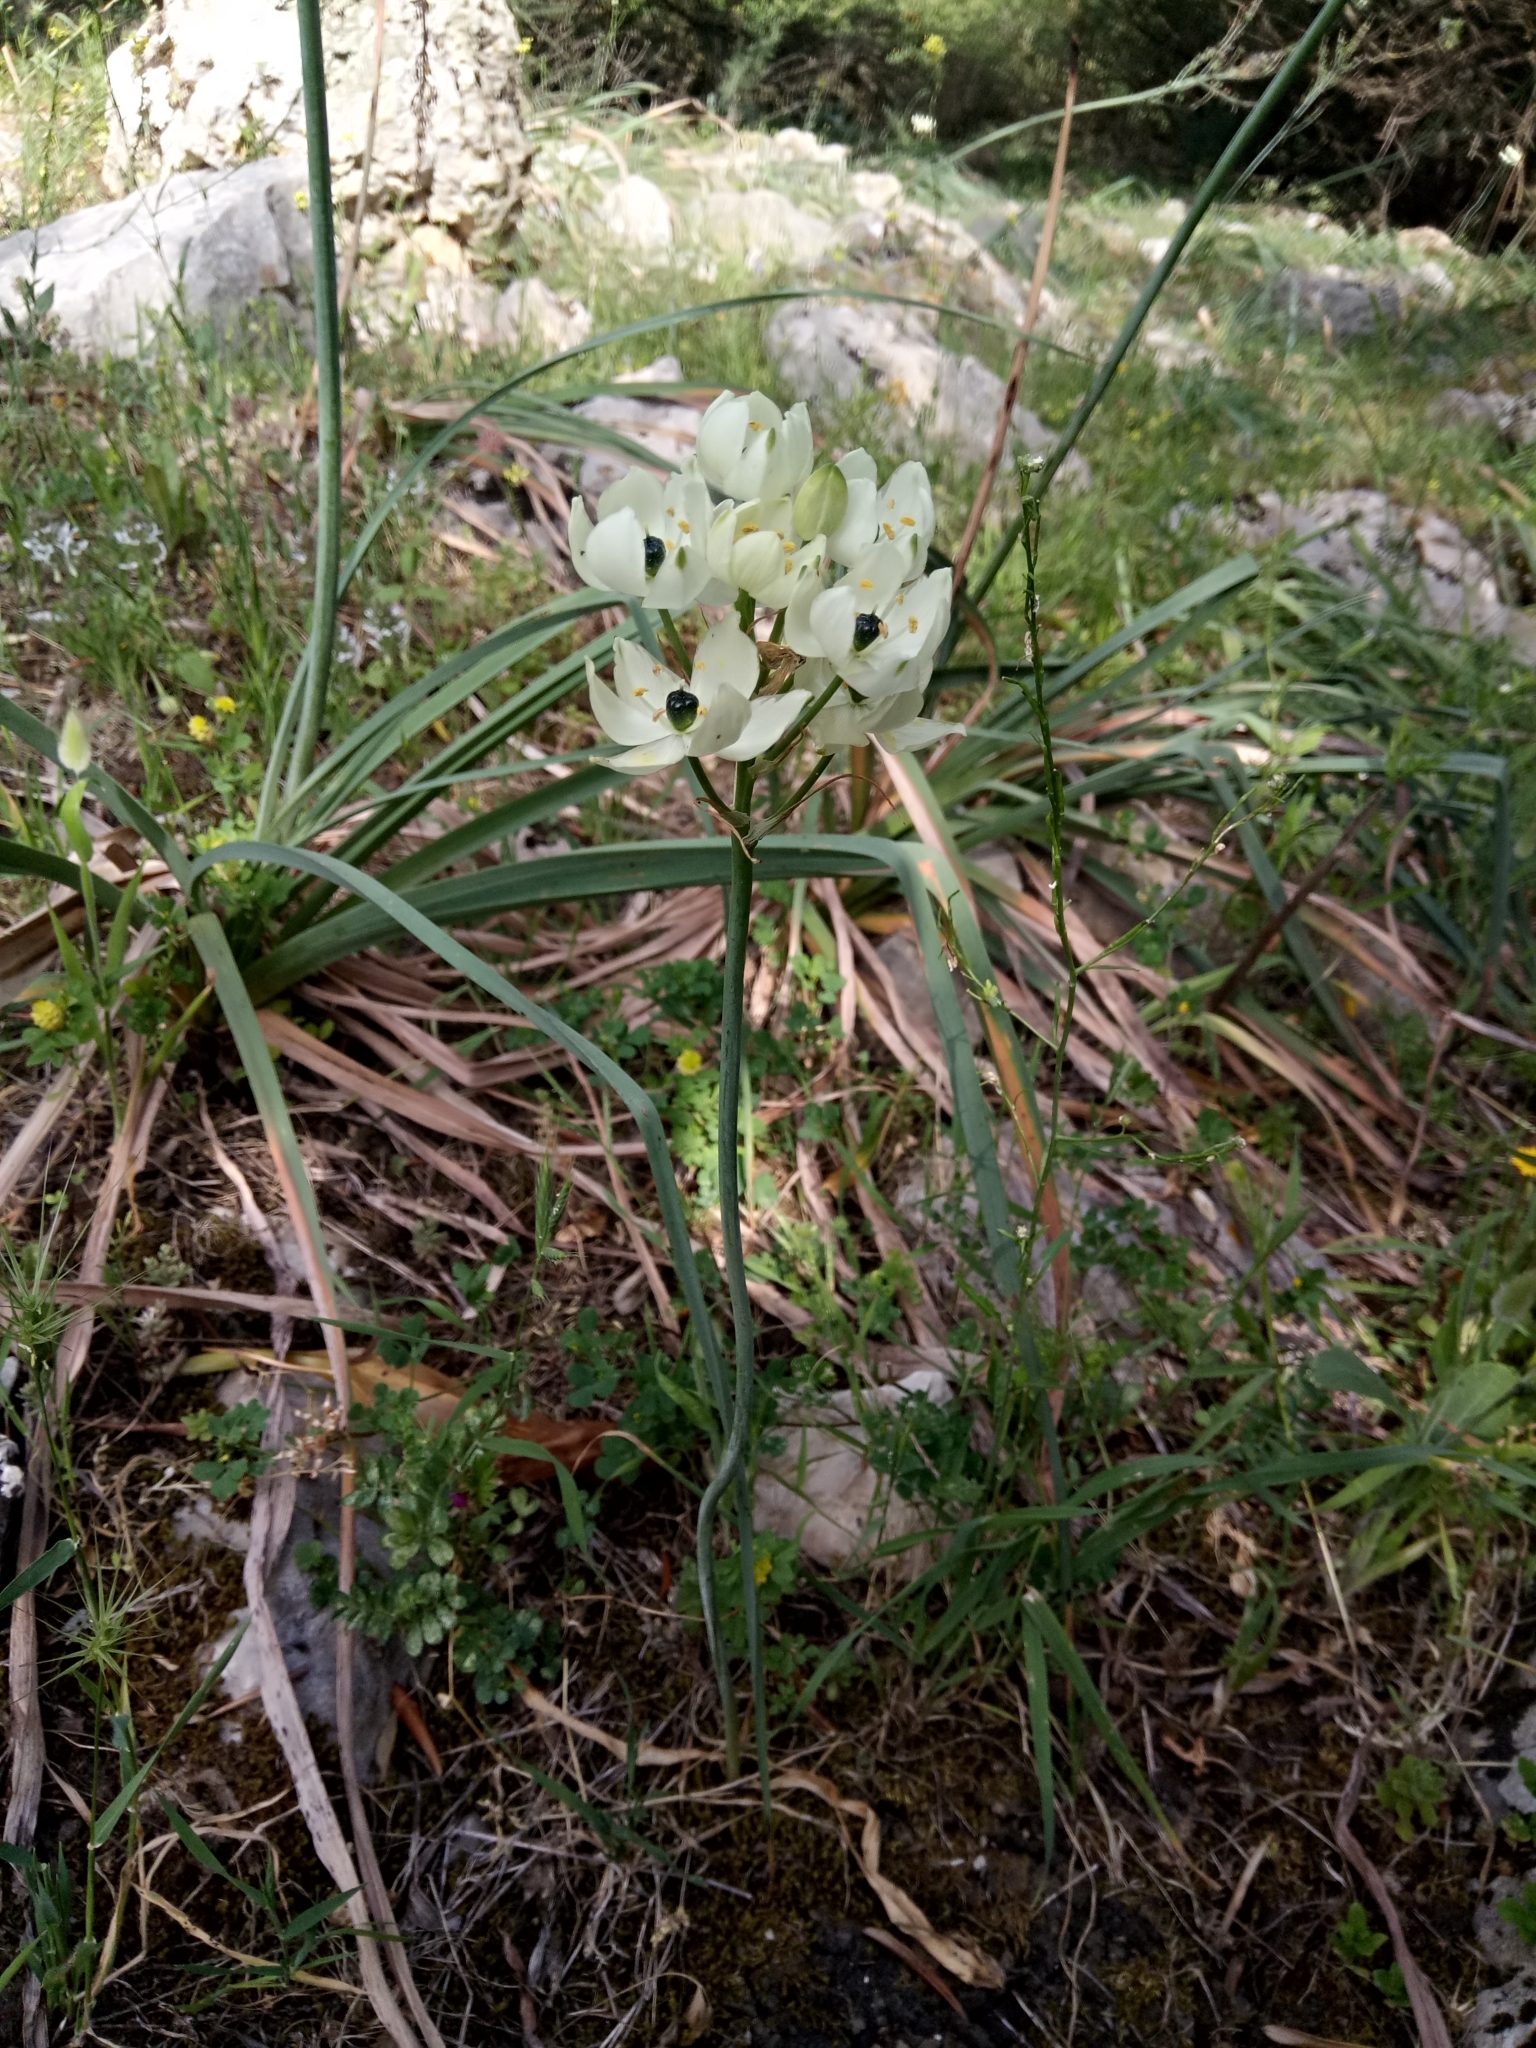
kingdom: Plantae
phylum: Tracheophyta
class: Liliopsida
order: Asparagales
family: Asparagaceae
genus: Ornithogalum
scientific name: Ornithogalum arabicum
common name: Arabian starflower
